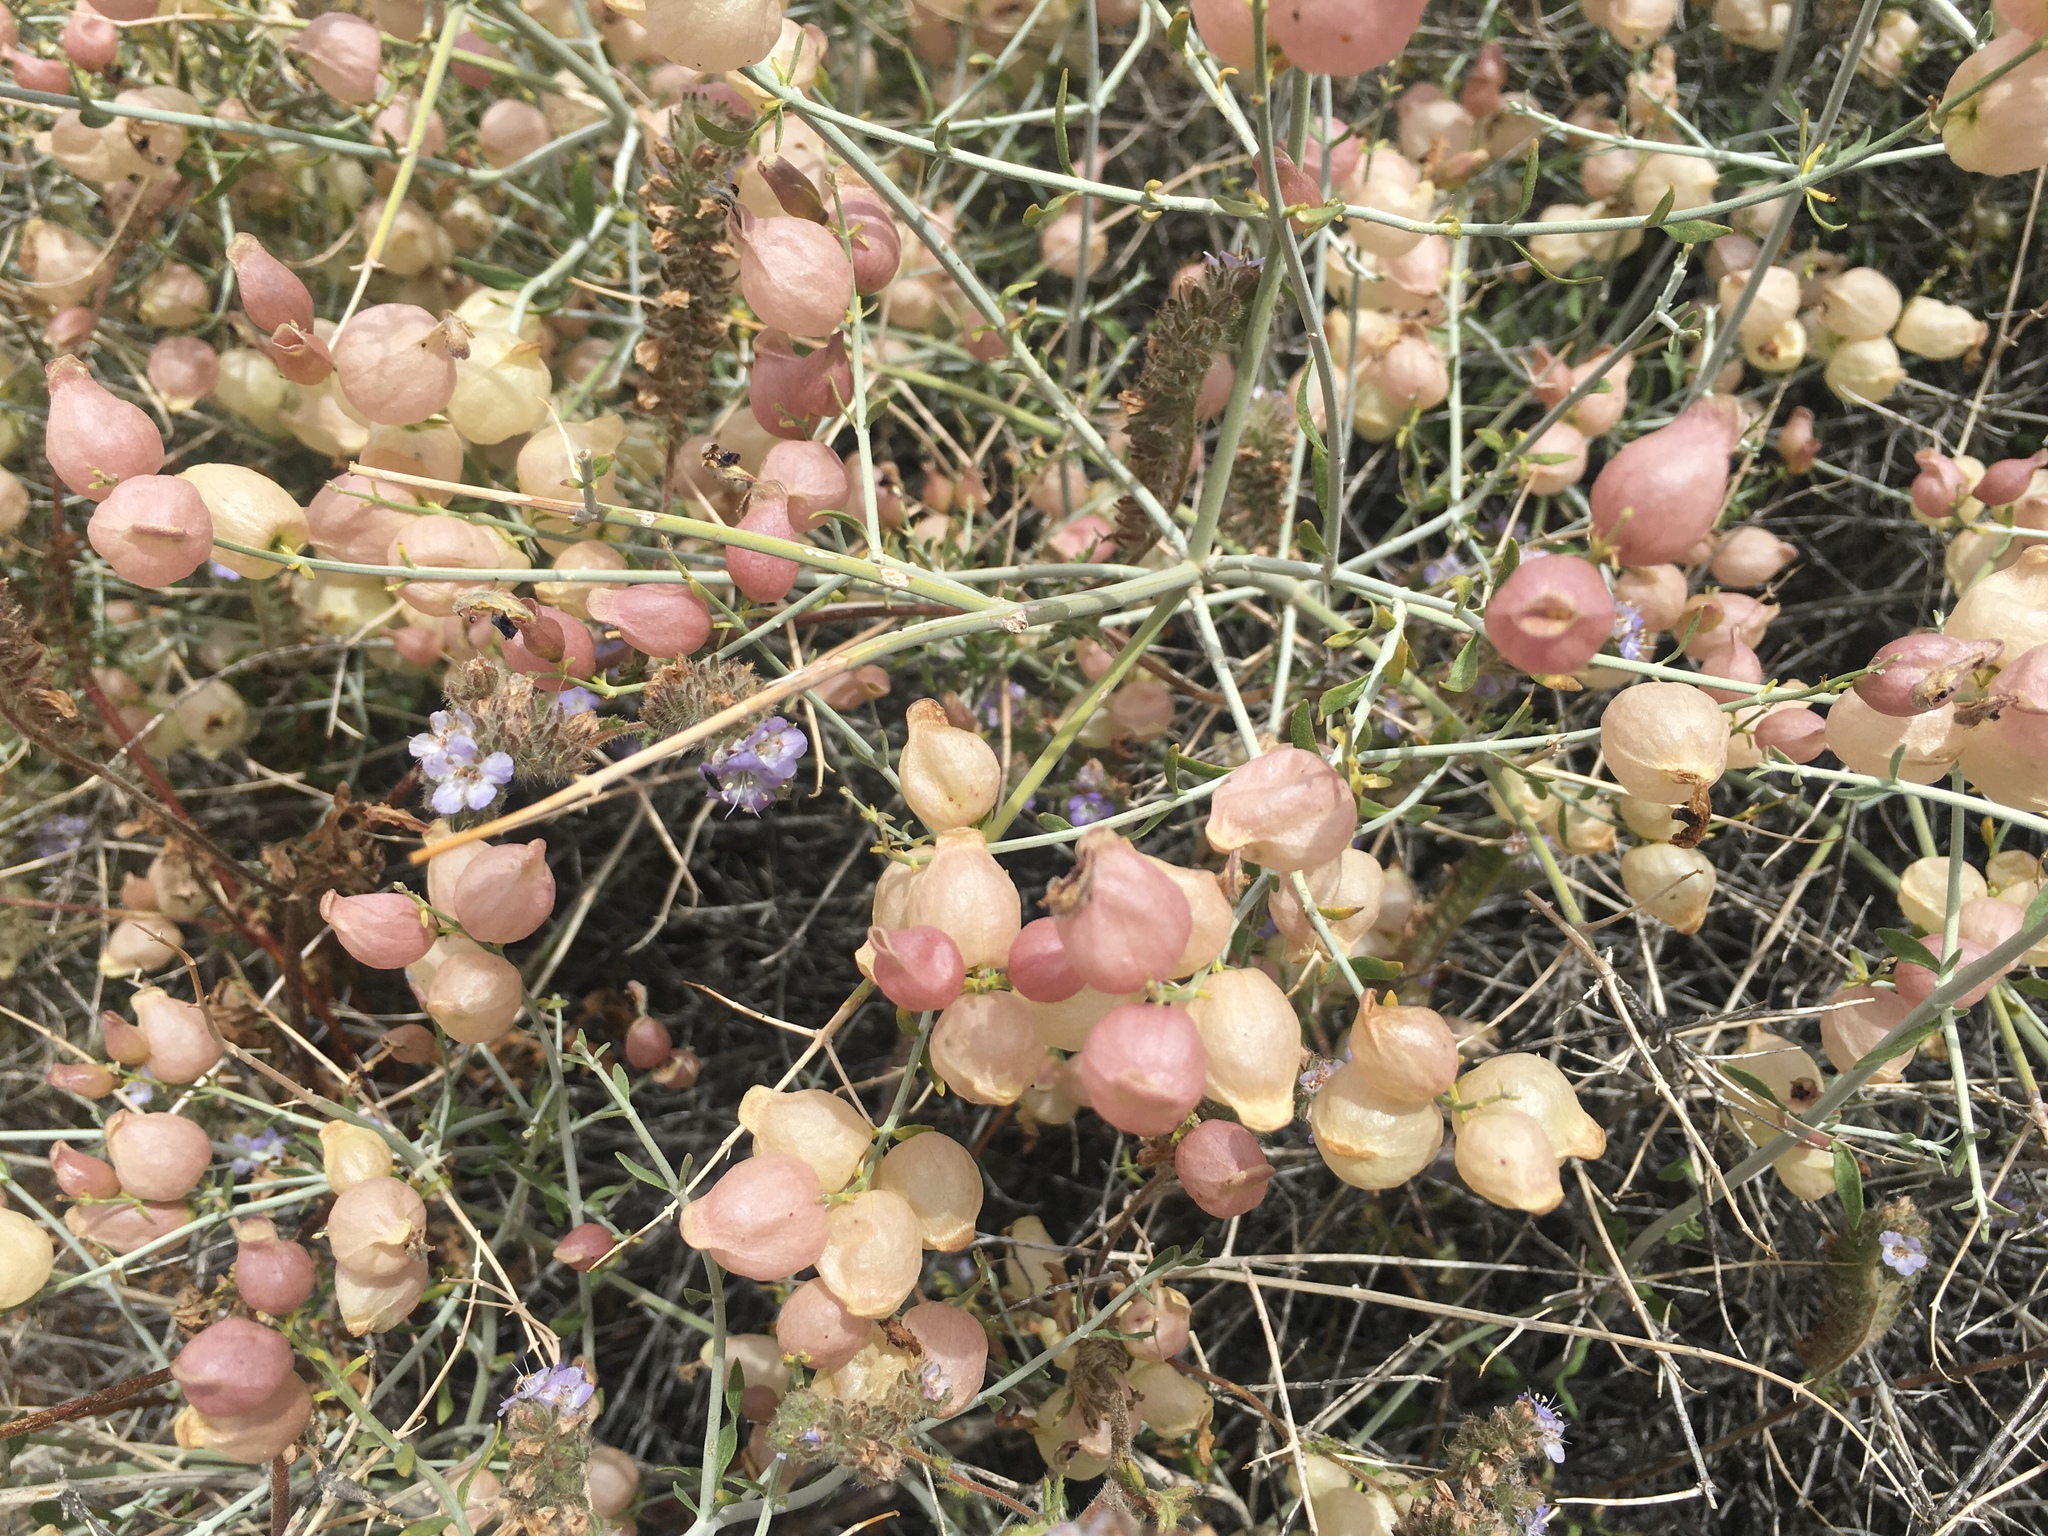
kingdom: Plantae
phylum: Tracheophyta
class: Magnoliopsida
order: Lamiales
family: Lamiaceae
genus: Scutellaria
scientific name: Scutellaria mexicana
